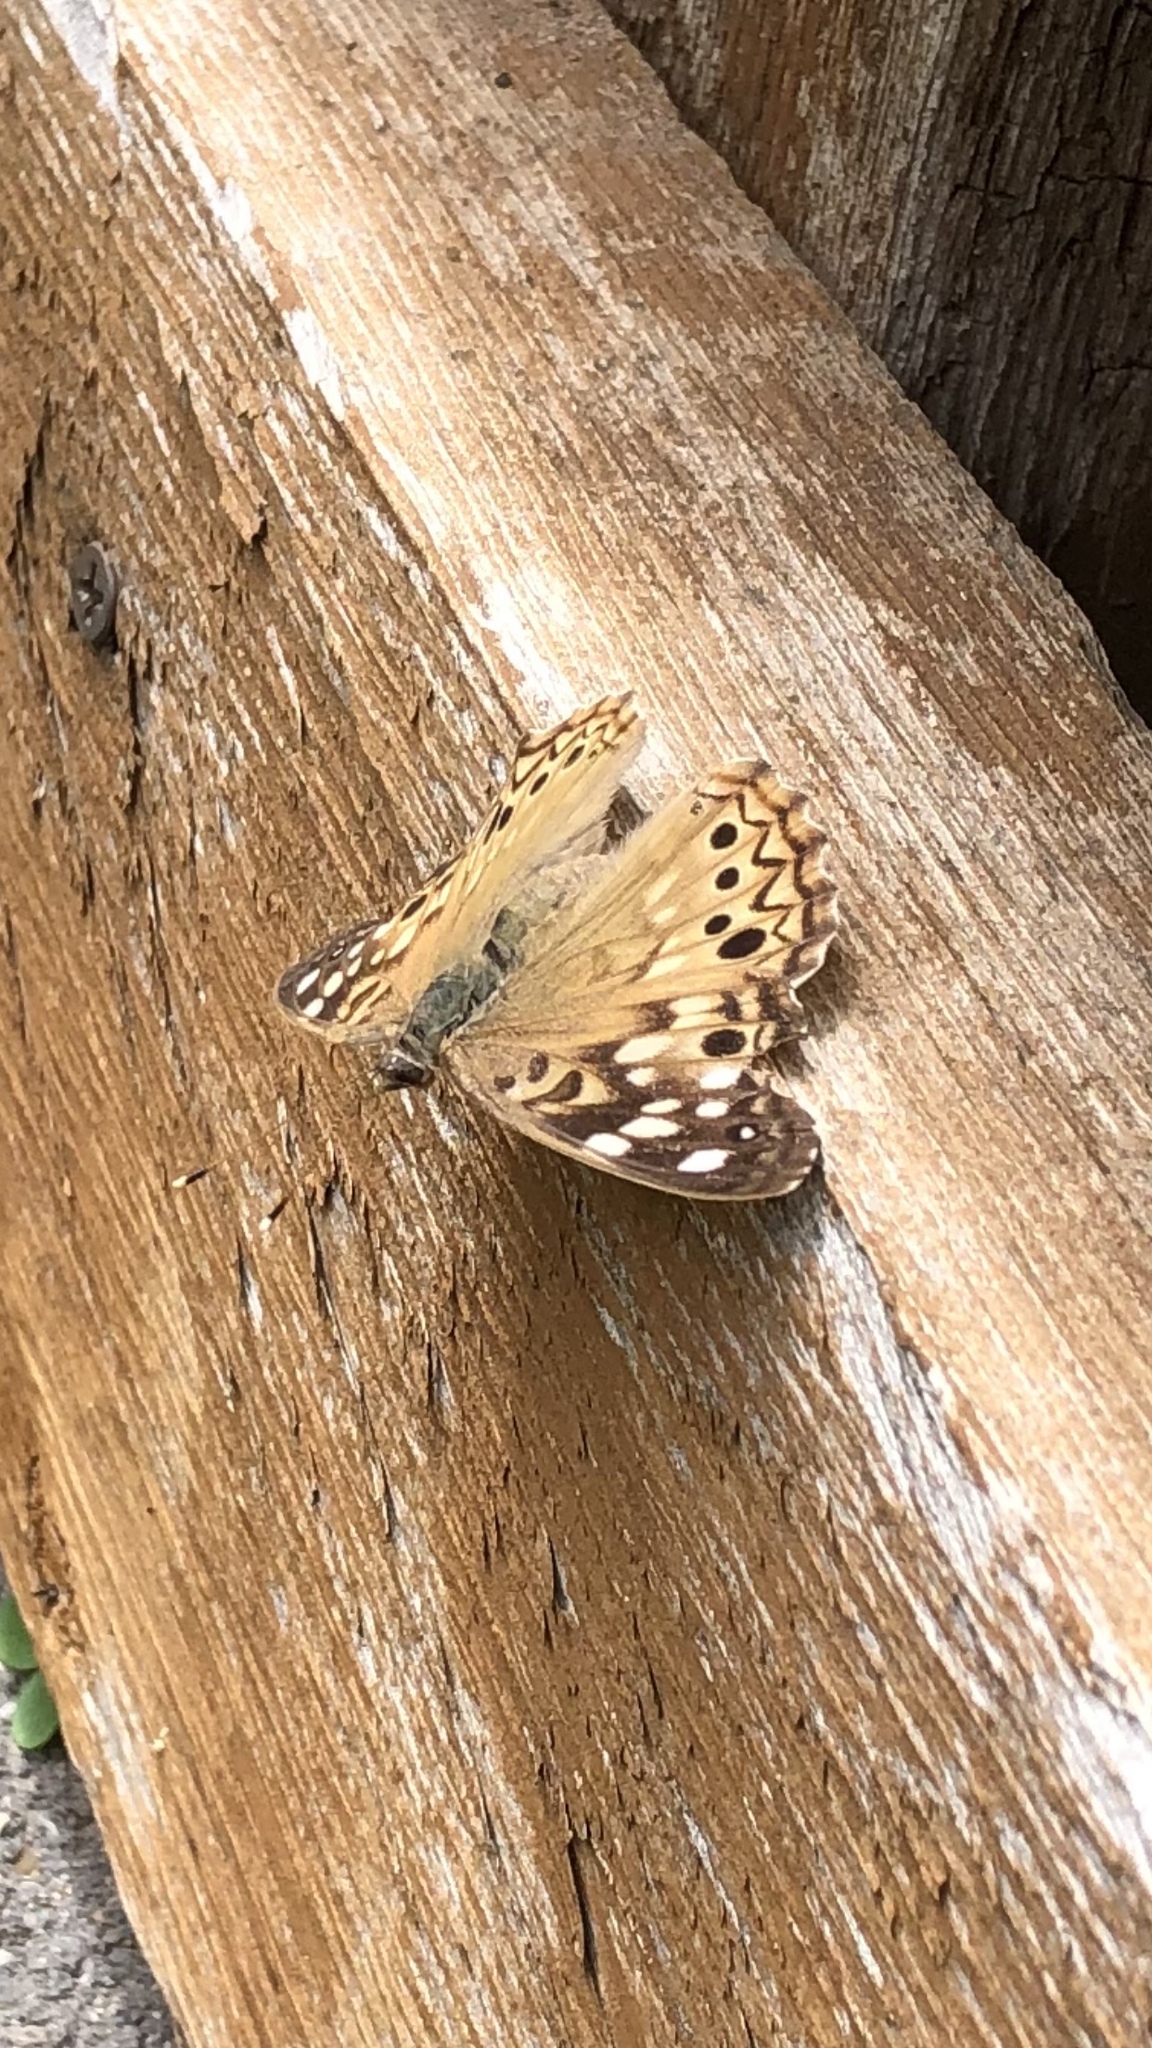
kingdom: Animalia
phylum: Arthropoda
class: Insecta
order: Lepidoptera
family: Nymphalidae
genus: Asterocampa
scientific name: Asterocampa celtis
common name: Hackberry emperor
